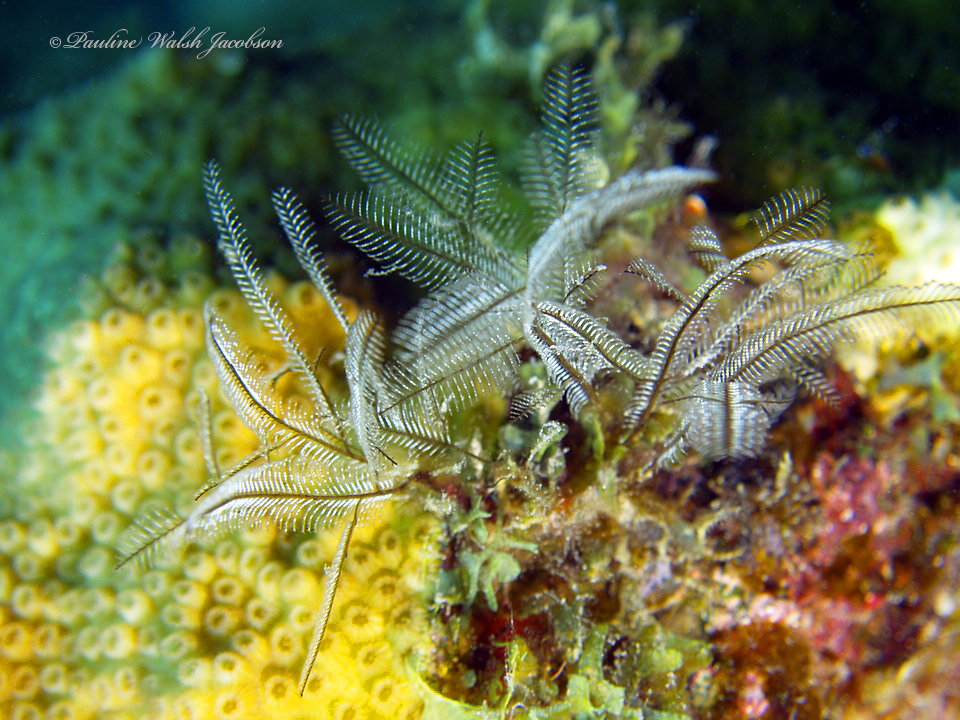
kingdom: Animalia
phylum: Cnidaria
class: Hydrozoa
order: Leptothecata
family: Aglaopheniidae
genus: Macrorhynchia
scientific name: Macrorhynchia philippina
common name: Stinging hydroid
